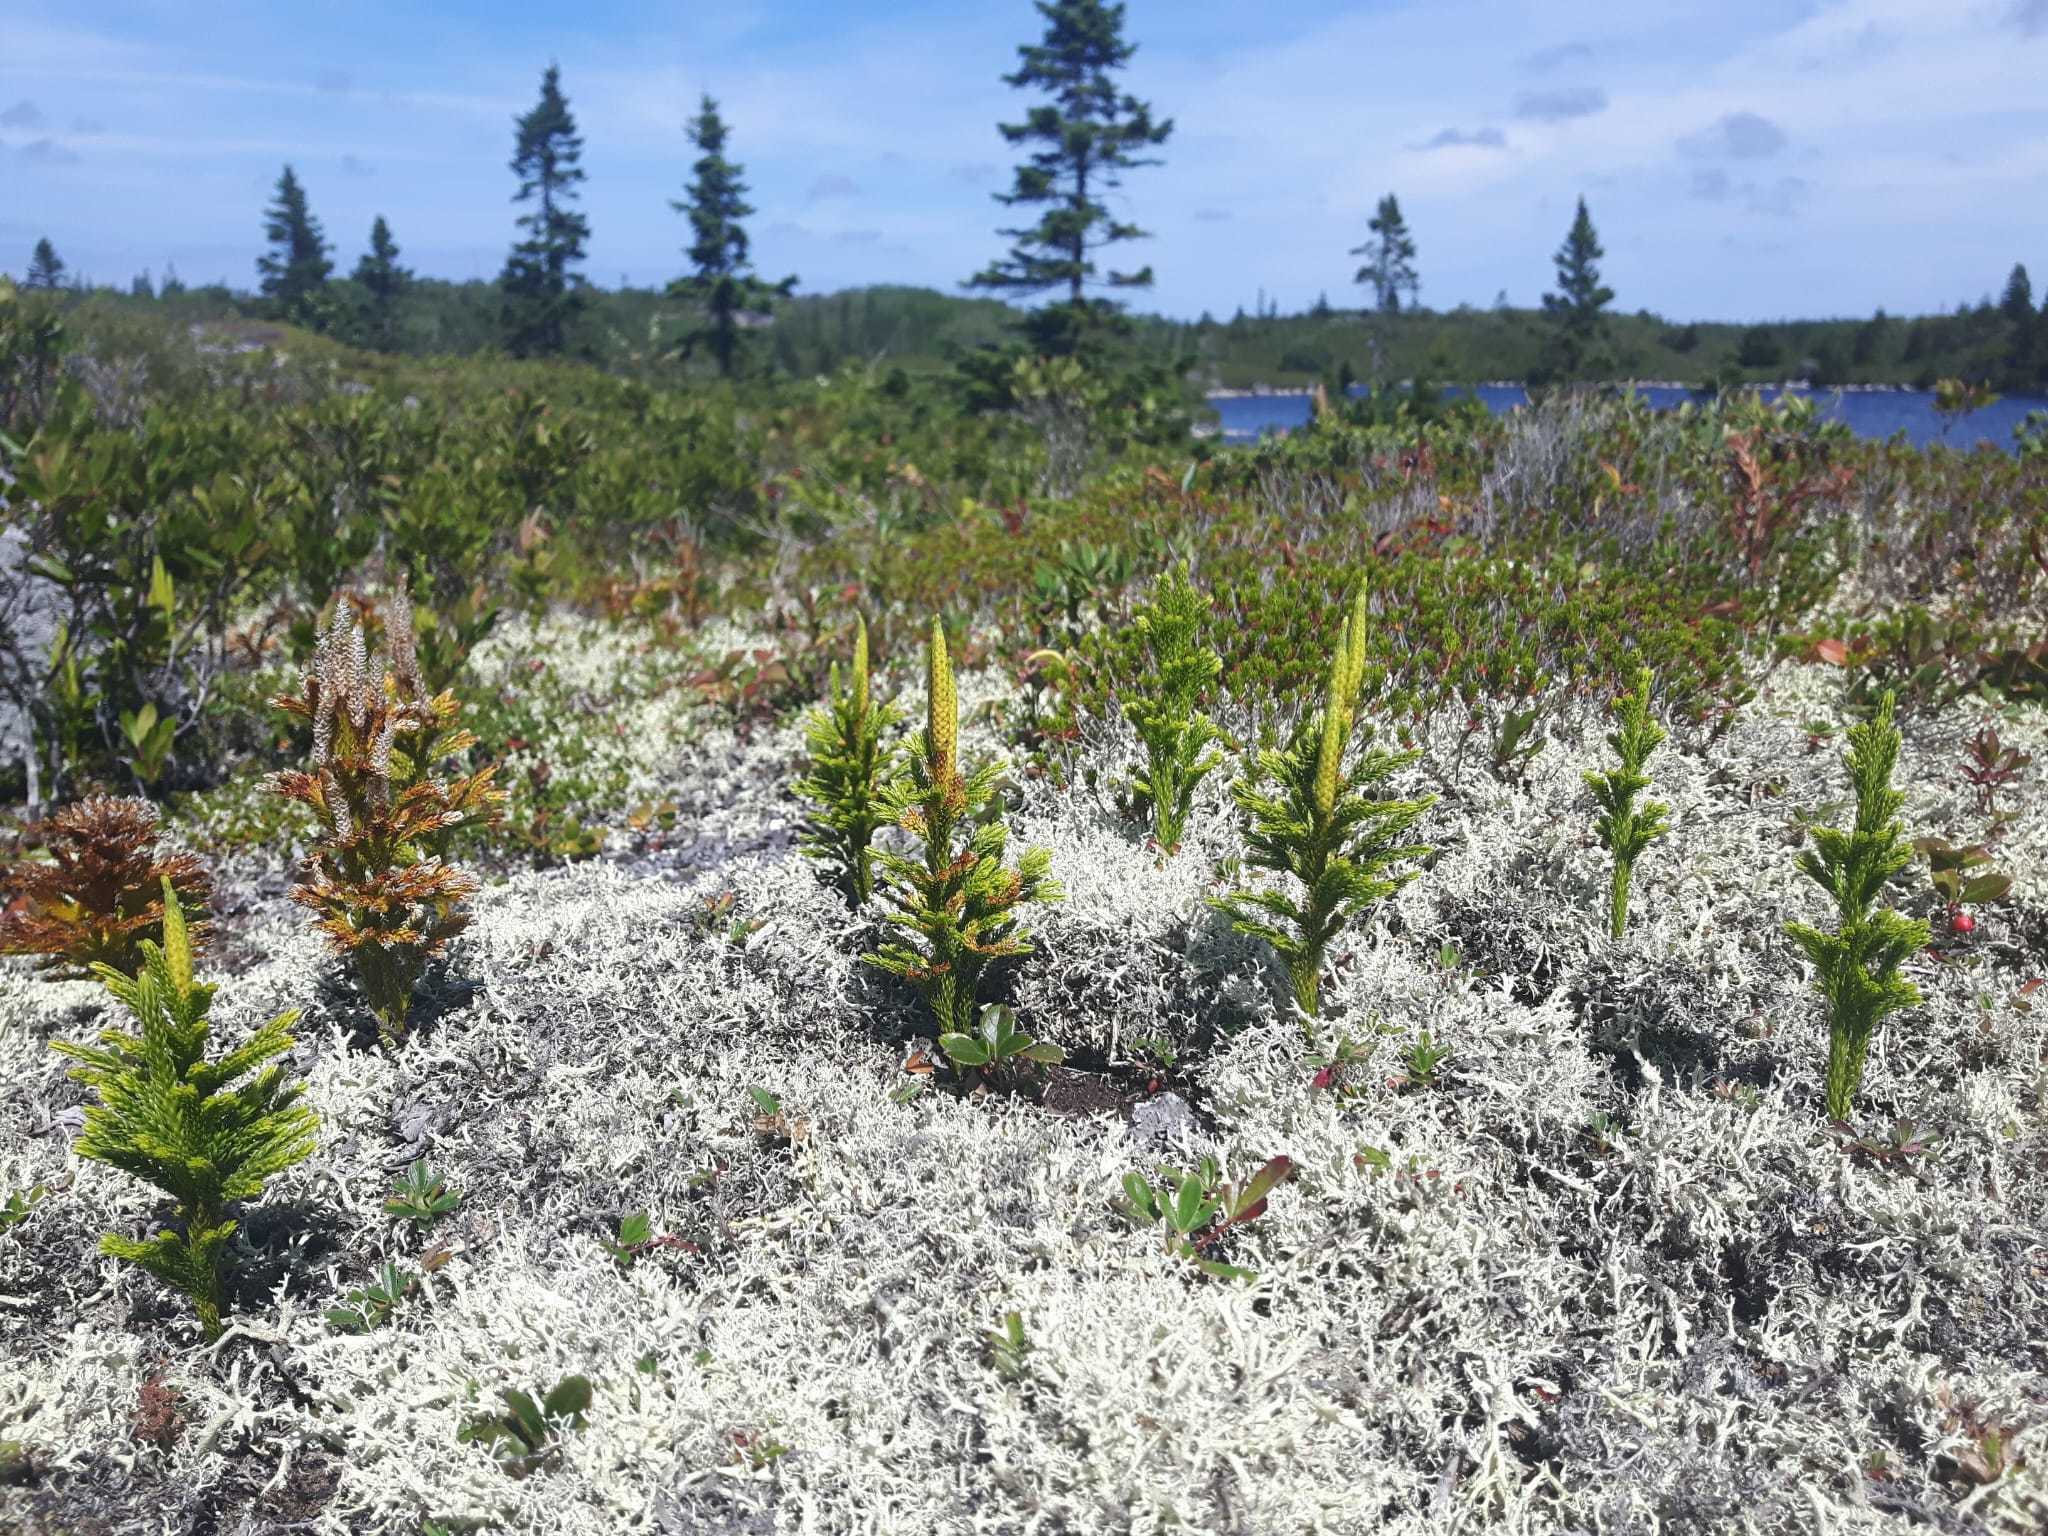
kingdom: Plantae
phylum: Tracheophyta
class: Lycopodiopsida
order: Lycopodiales
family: Lycopodiaceae
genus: Dendrolycopodium
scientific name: Dendrolycopodium hickeyi
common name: Hickey's clubmoss
